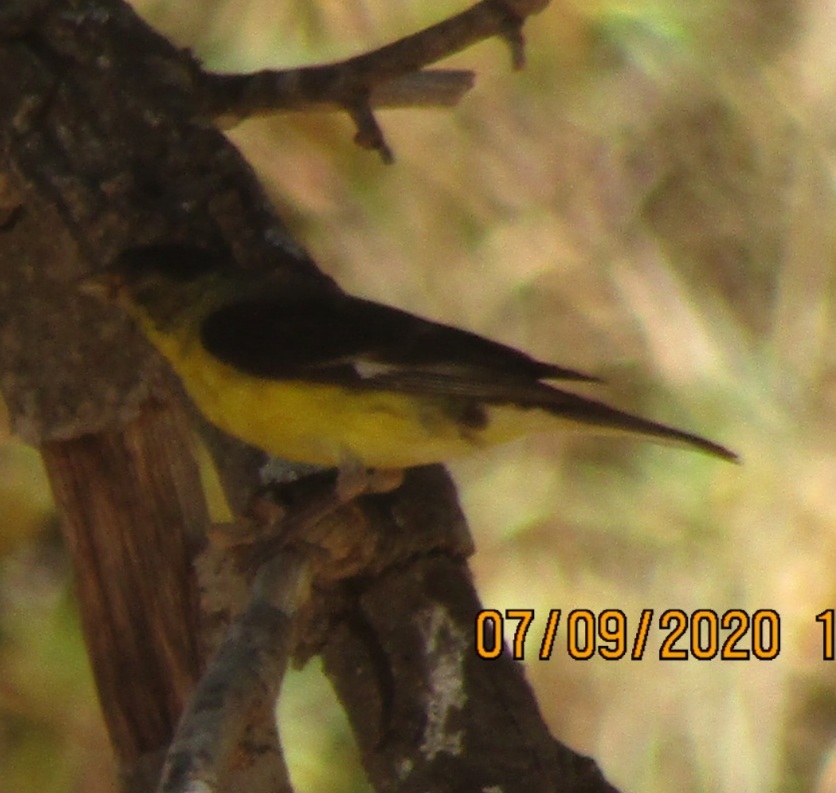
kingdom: Animalia
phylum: Chordata
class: Aves
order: Passeriformes
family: Fringillidae
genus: Spinus
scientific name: Spinus psaltria
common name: Lesser goldfinch
